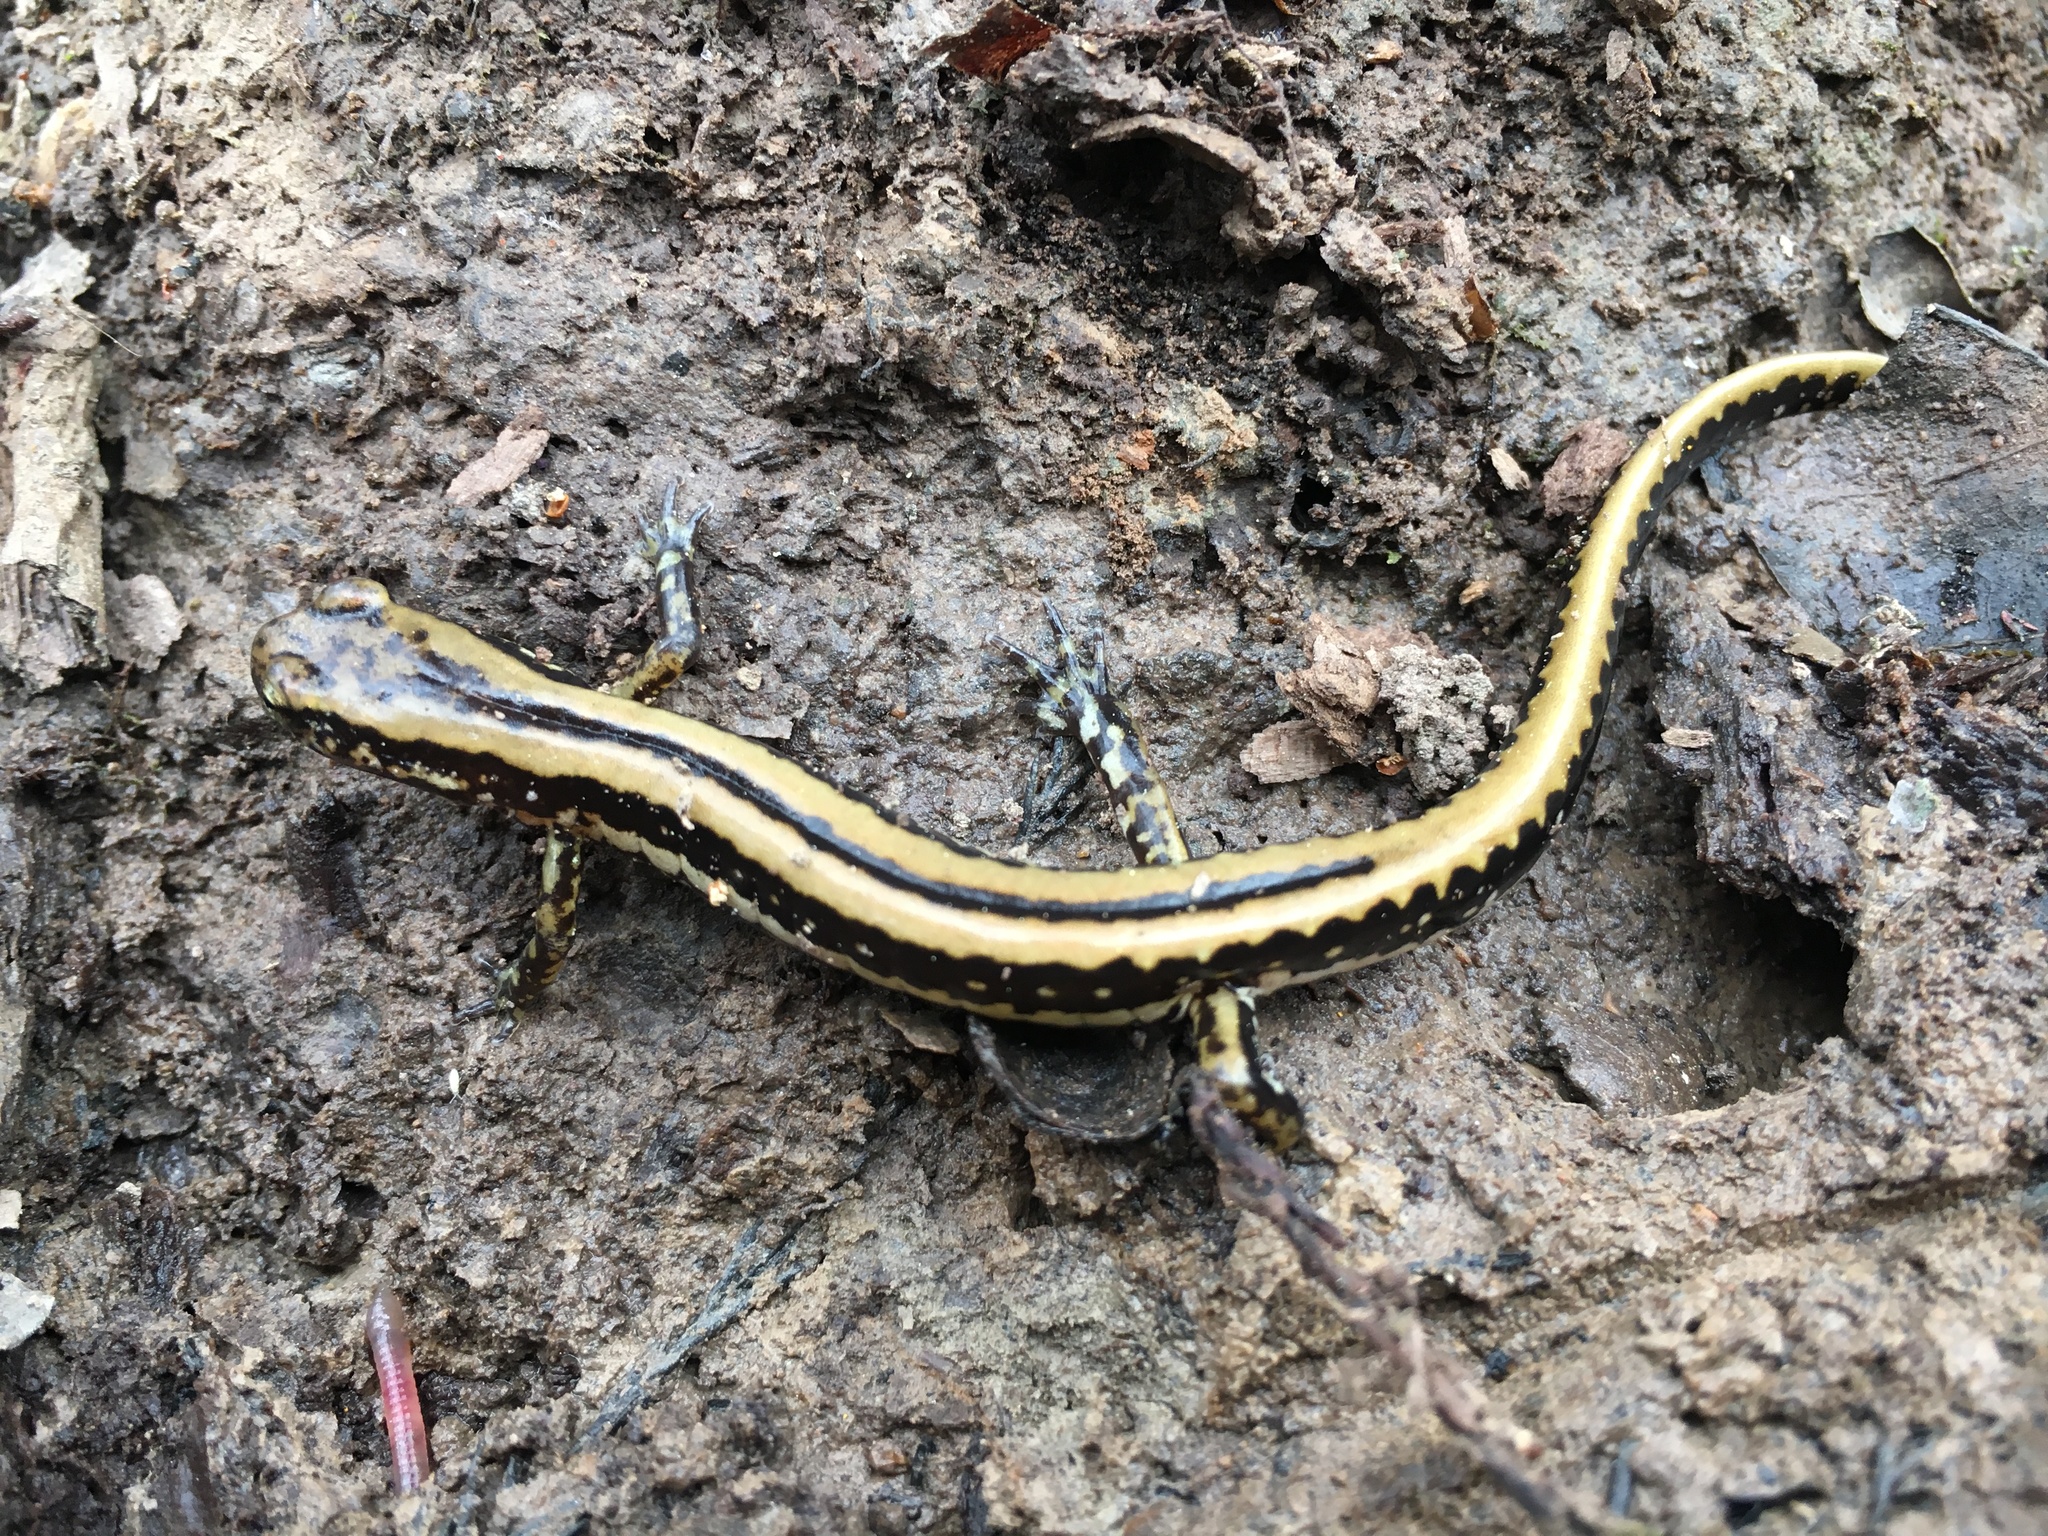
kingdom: Animalia
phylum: Chordata
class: Amphibia
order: Caudata
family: Plethodontidae
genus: Eurycea
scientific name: Eurycea guttolineata
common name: Three-lined salamander
